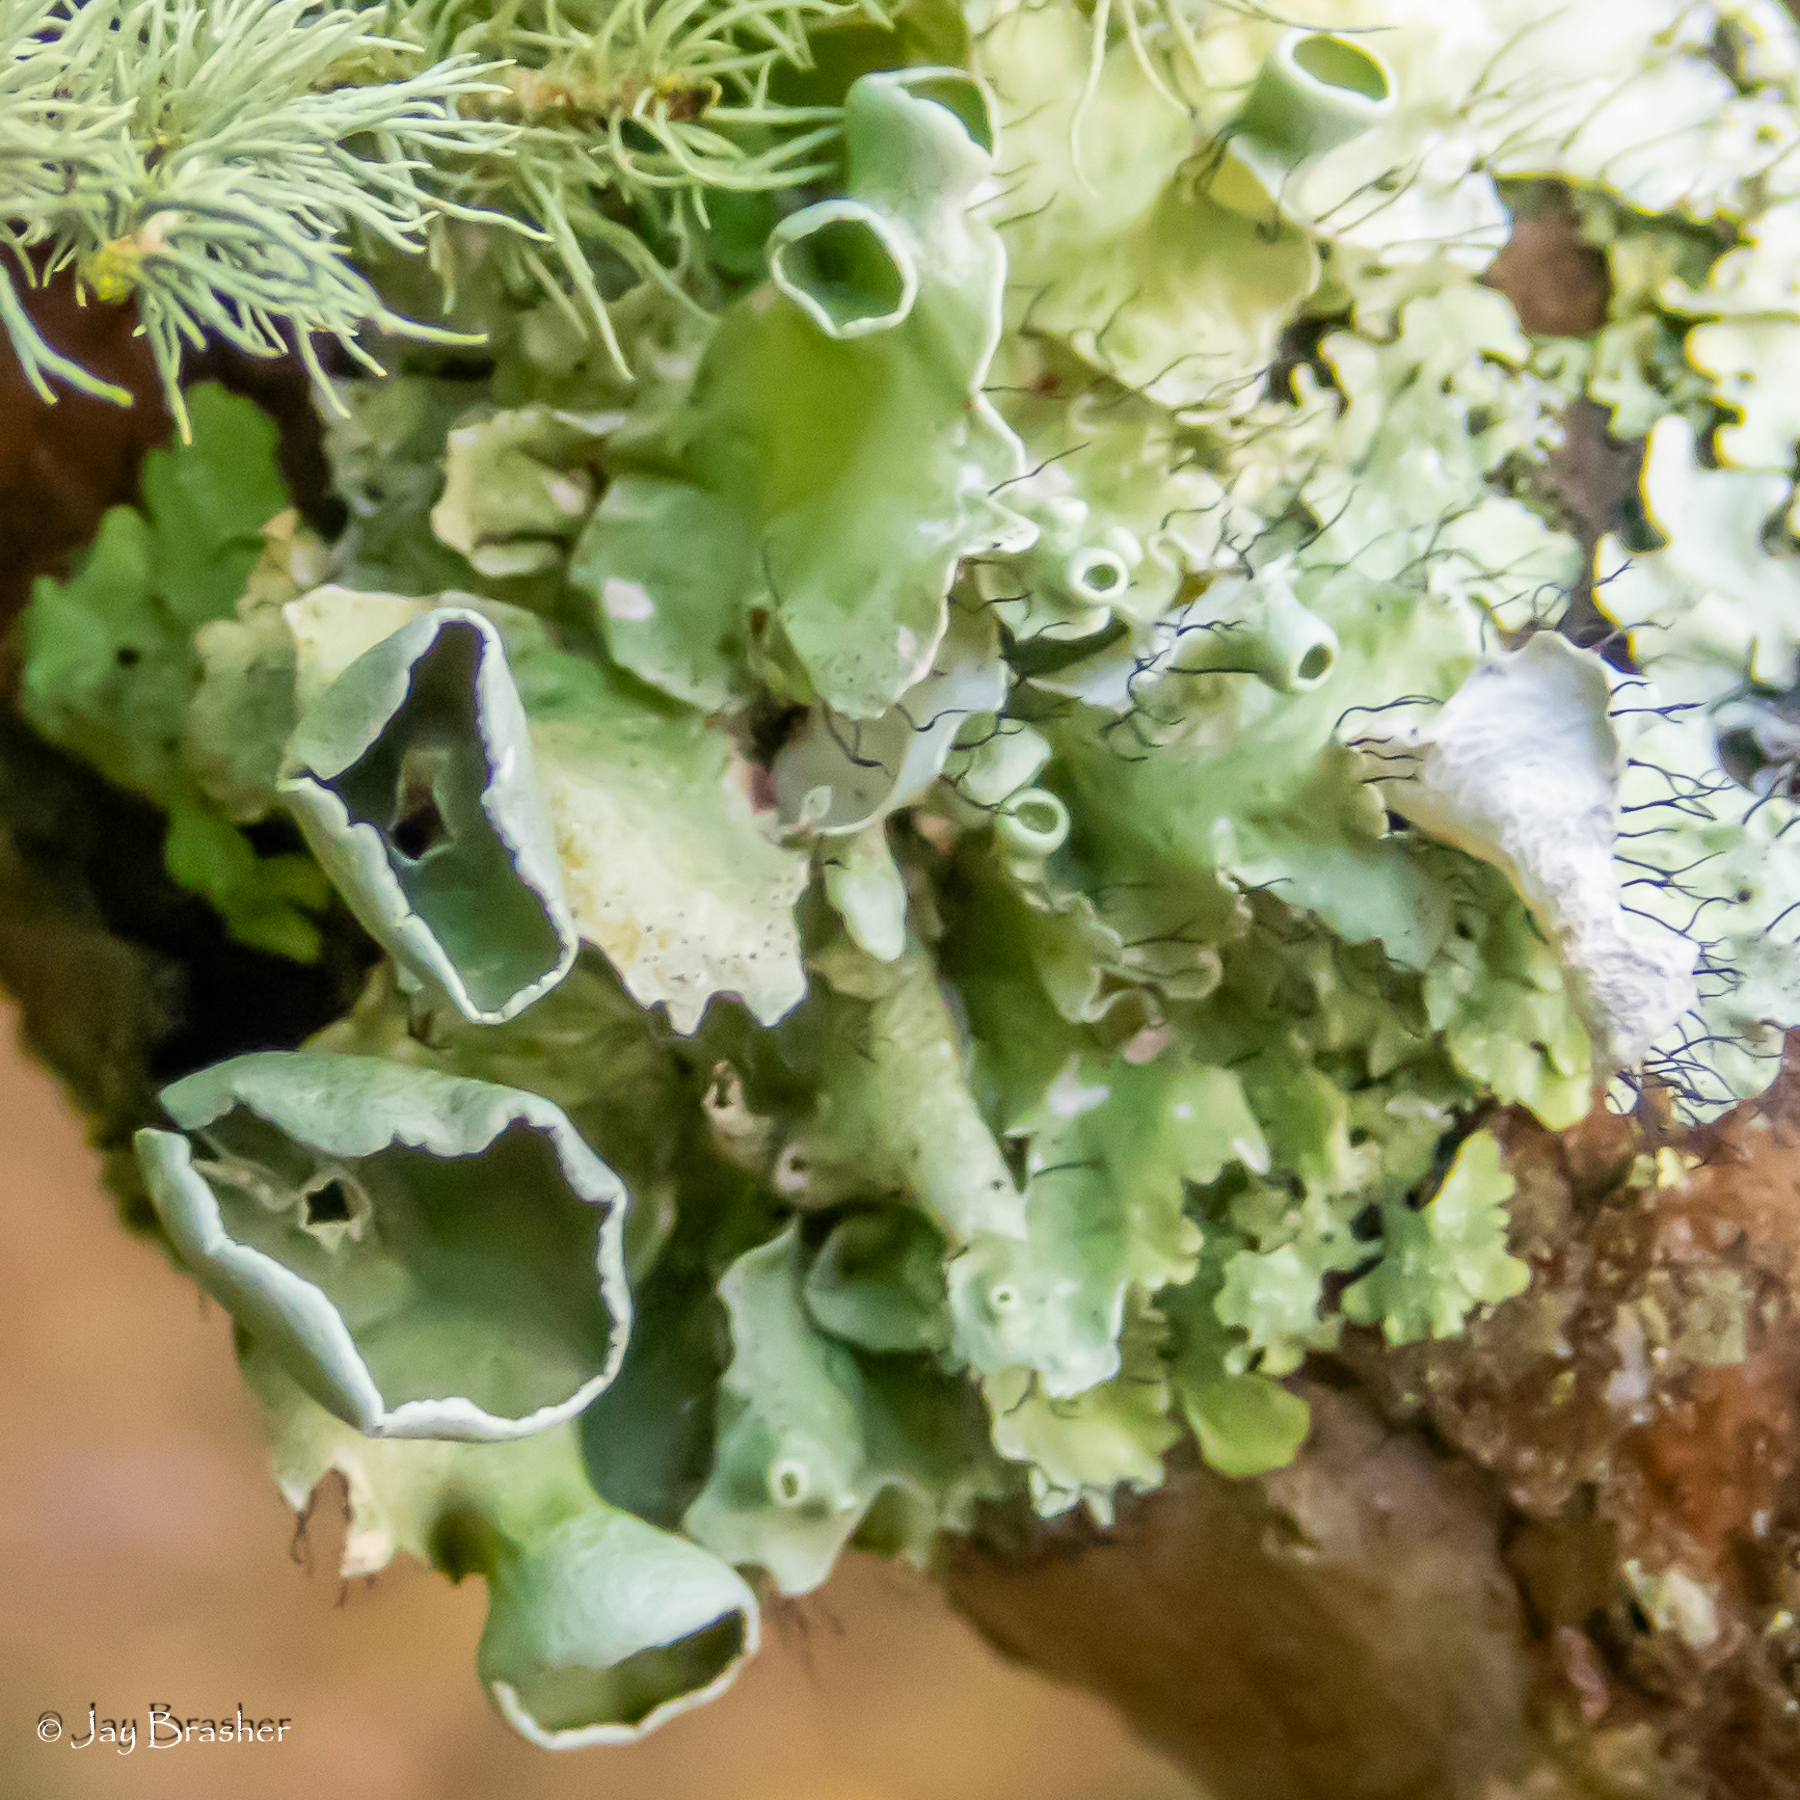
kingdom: Fungi
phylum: Ascomycota
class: Lecanoromycetes
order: Lecanorales
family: Parmeliaceae
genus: Parmotrema
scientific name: Parmotrema perforatum
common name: Perforated ruffle lichen
